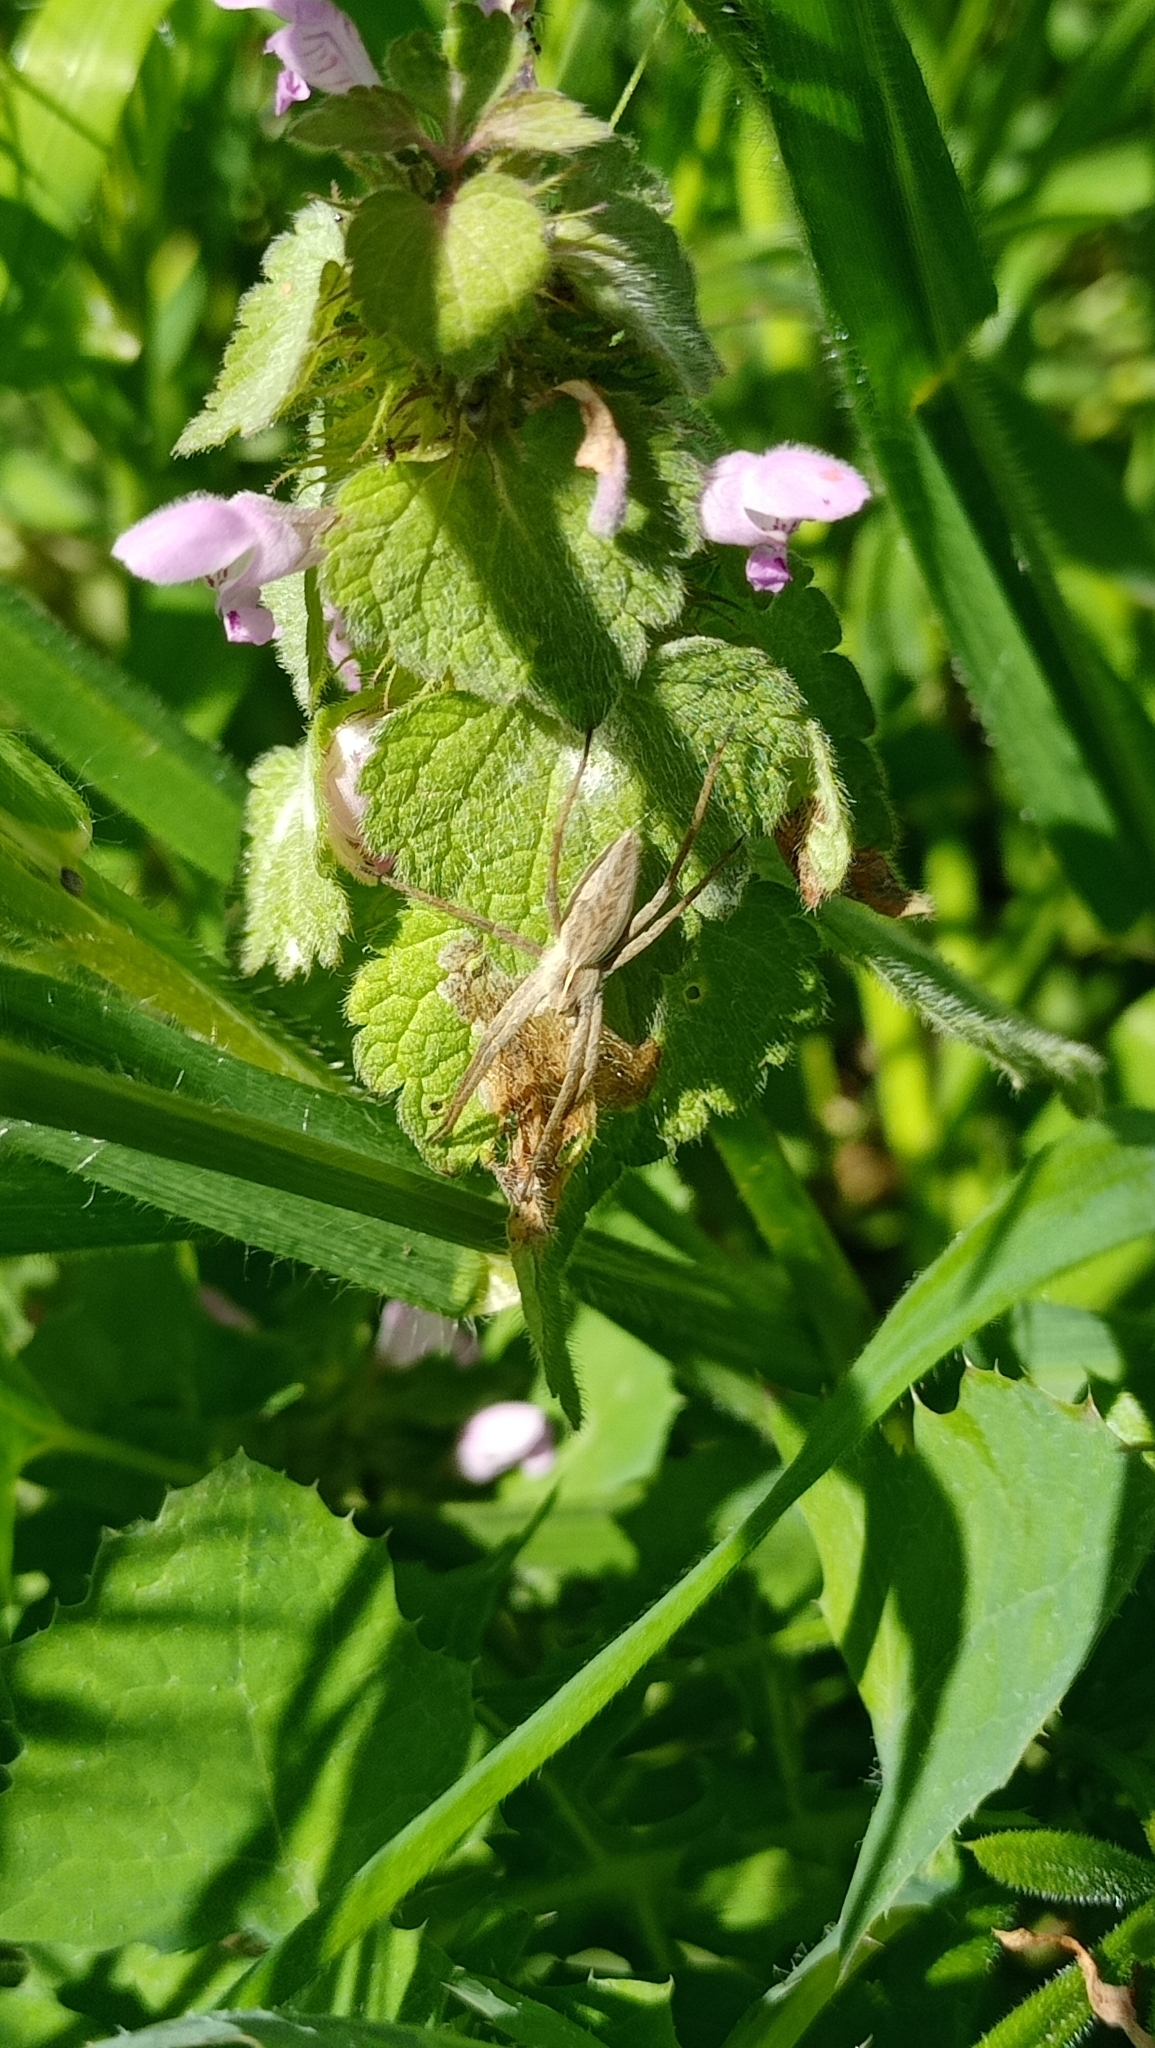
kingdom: Animalia
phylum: Arthropoda
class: Arachnida
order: Araneae
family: Pisauridae
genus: Pisaura
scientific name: Pisaura mirabilis
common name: Tent spider
